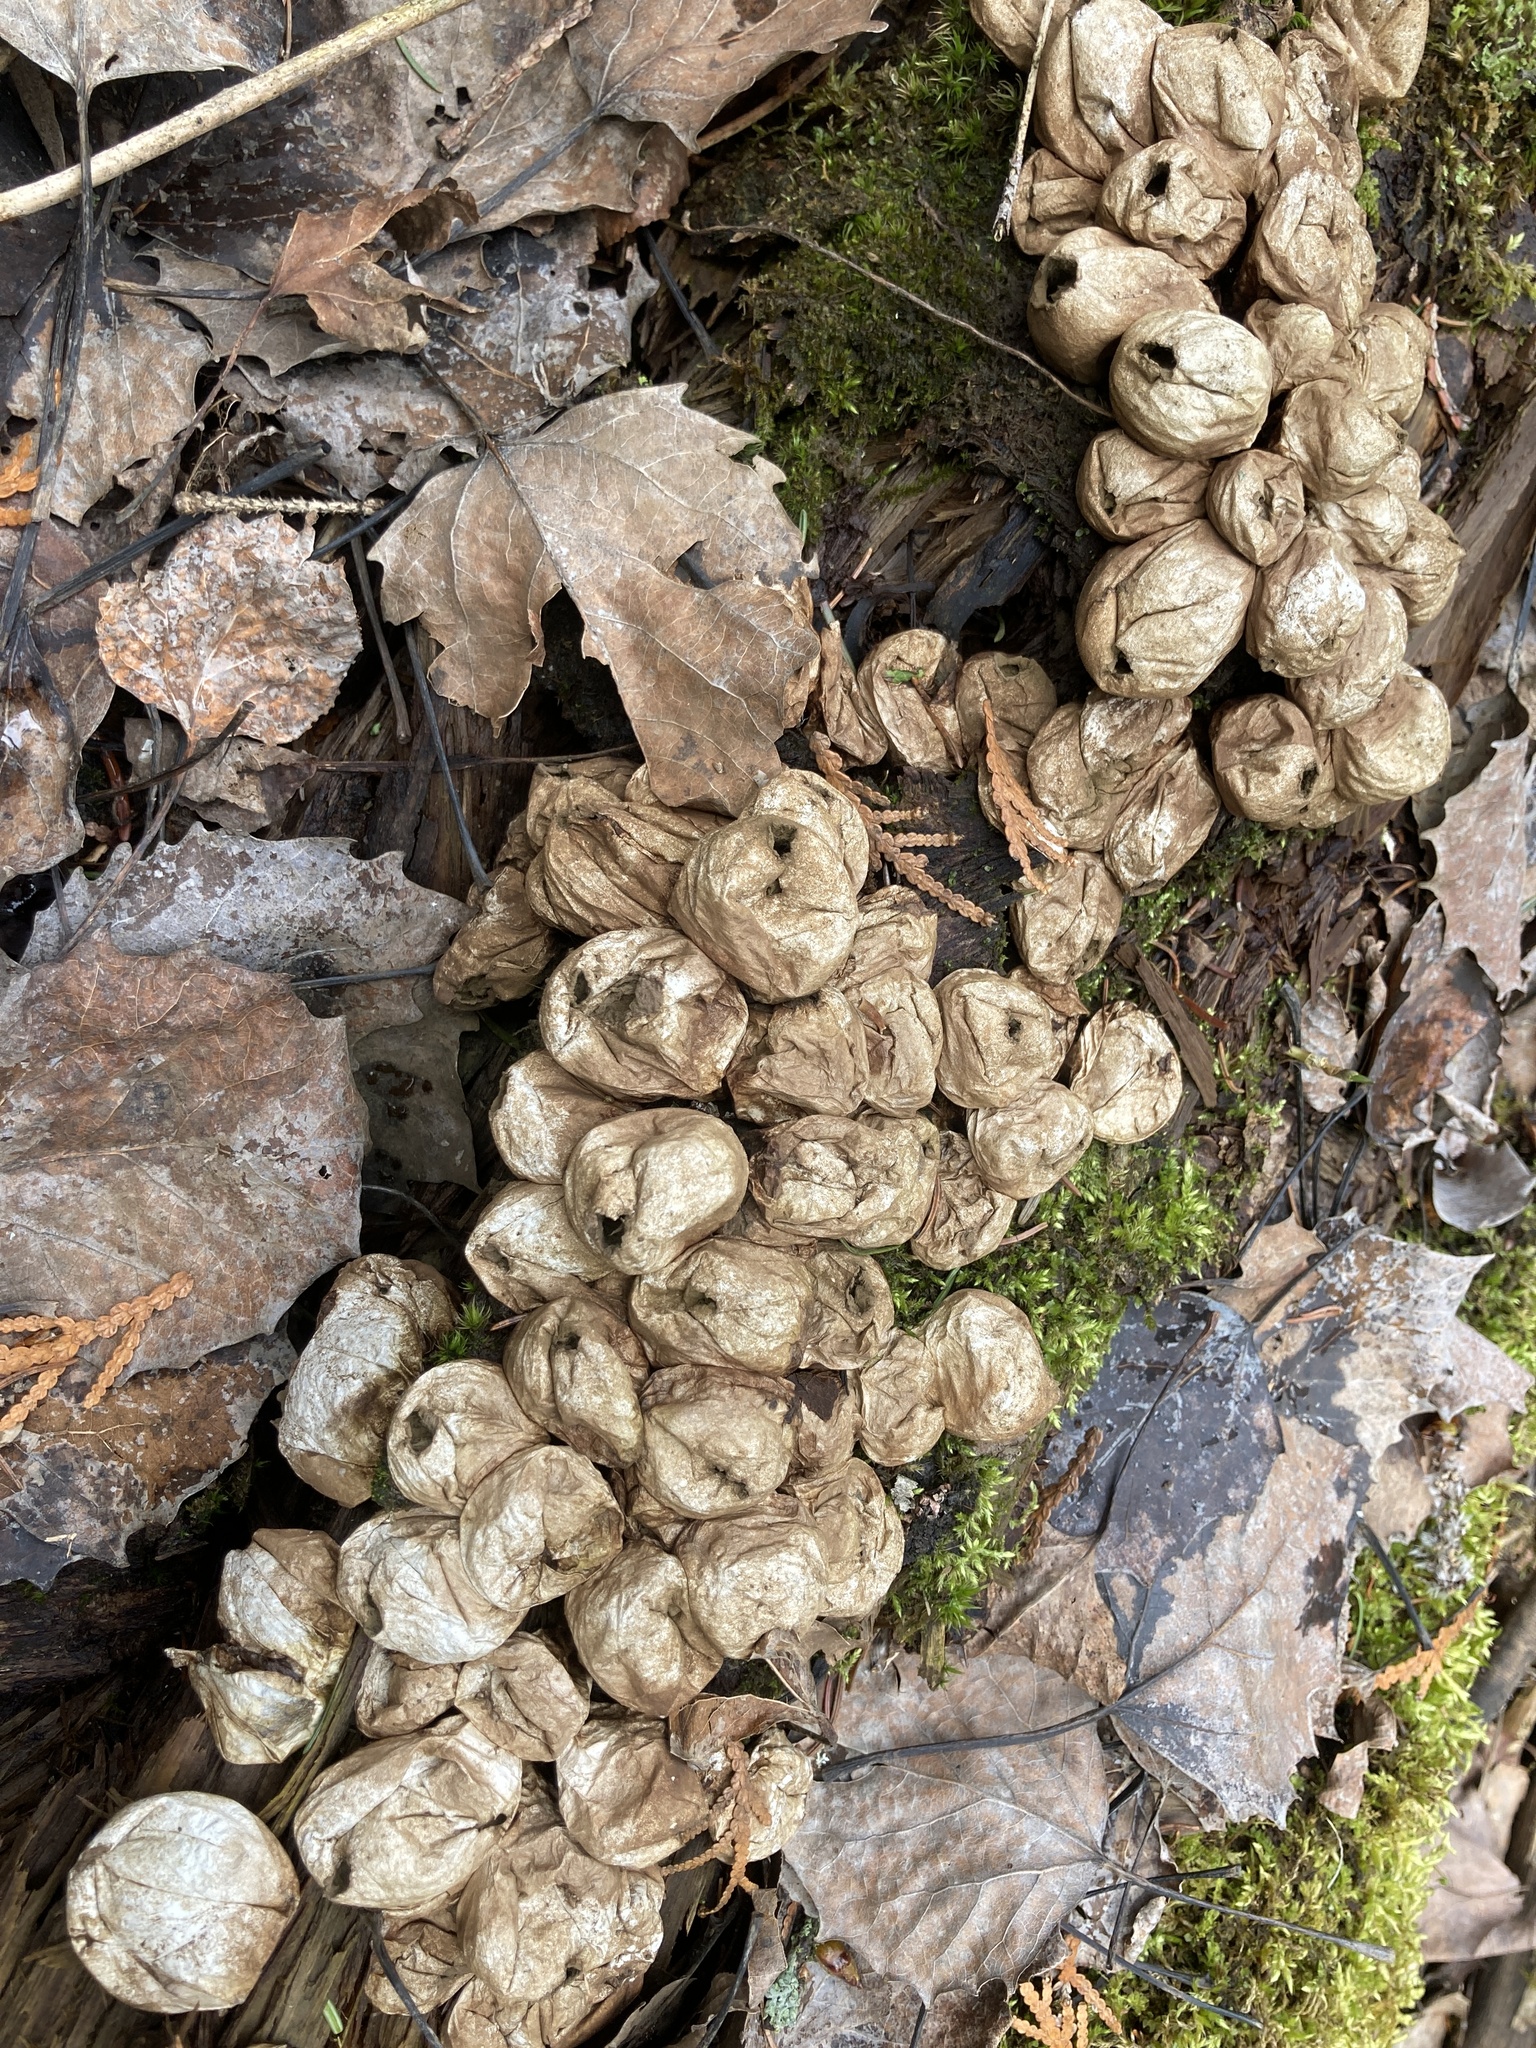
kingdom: Fungi
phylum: Basidiomycota
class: Agaricomycetes
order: Agaricales
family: Lycoperdaceae
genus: Apioperdon
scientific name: Apioperdon pyriforme
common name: Pear-shaped puffball
